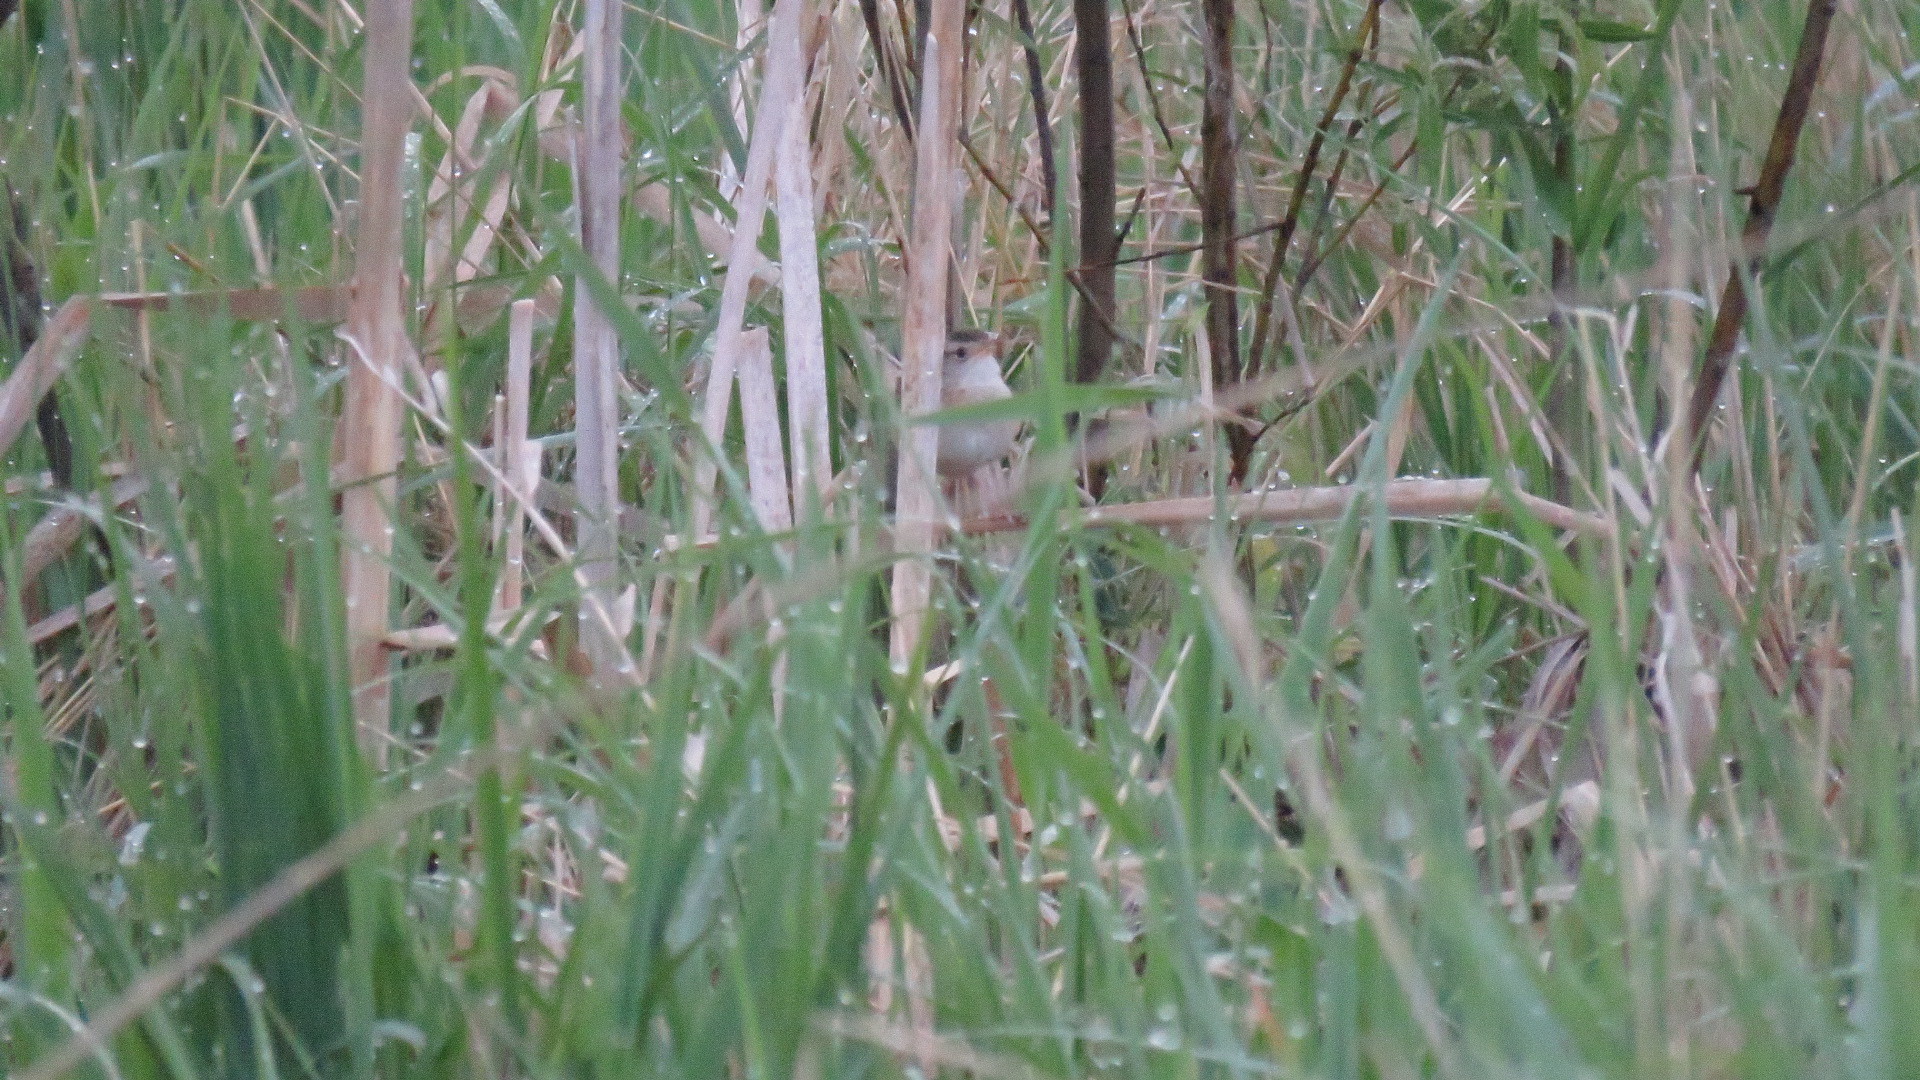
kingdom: Animalia
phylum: Chordata
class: Aves
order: Passeriformes
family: Troglodytidae
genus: Cistothorus
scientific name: Cistothorus platensis
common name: Sedge wren
